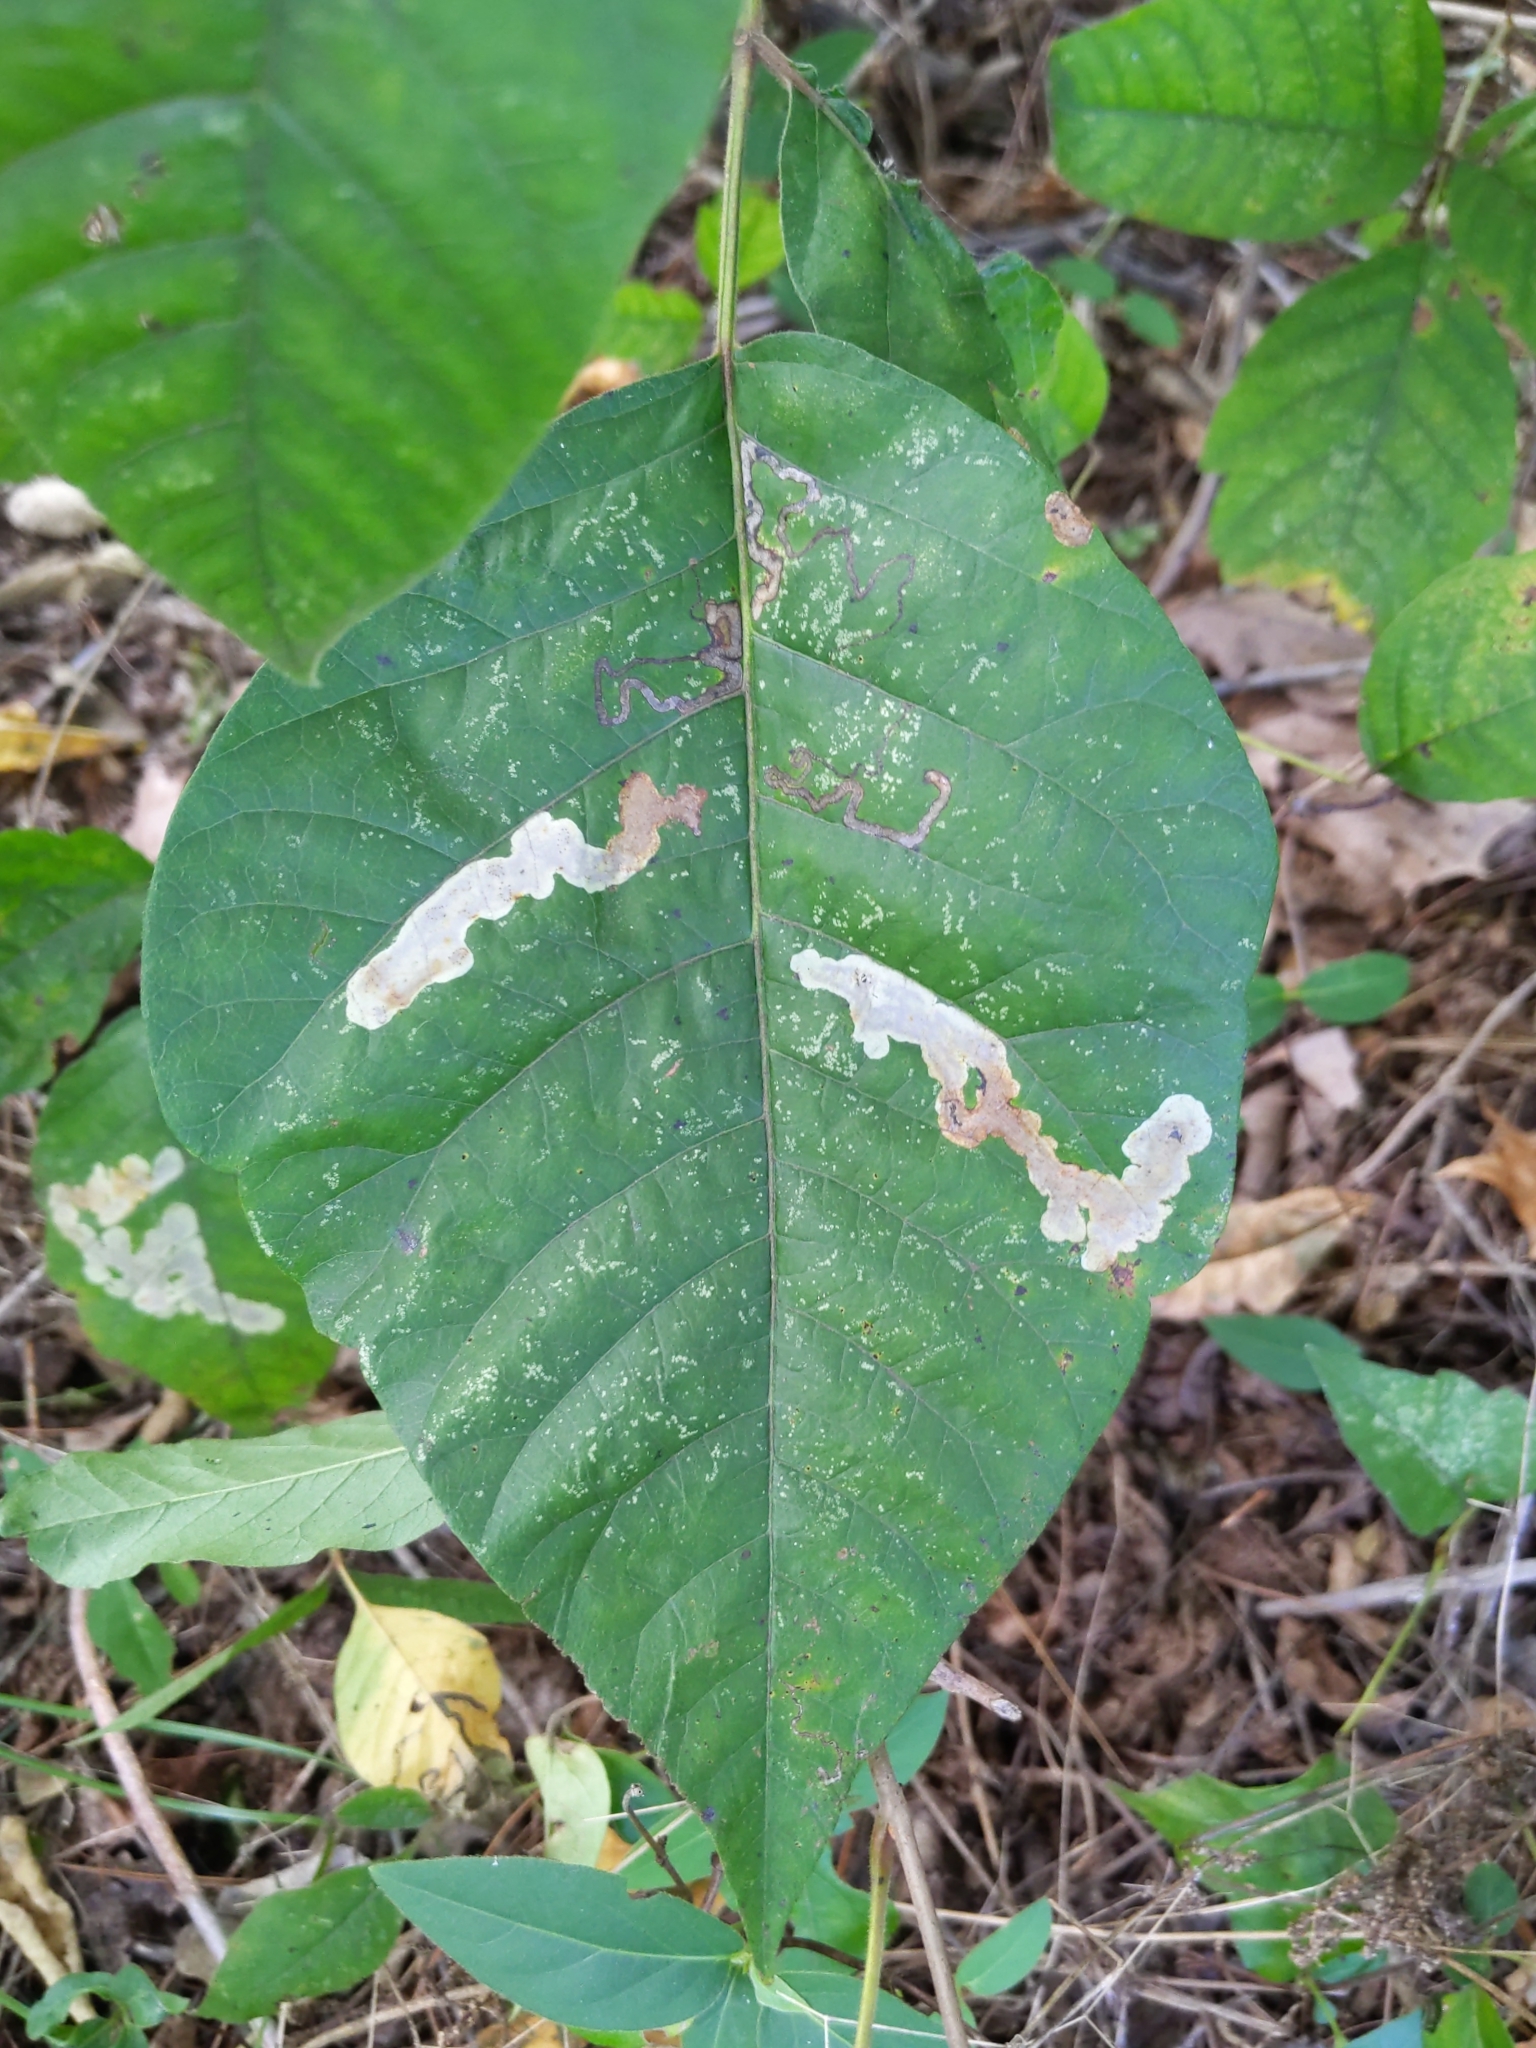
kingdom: Animalia
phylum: Arthropoda
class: Insecta
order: Lepidoptera
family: Nepticulidae
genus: Stigmella
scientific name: Stigmella rhoifoliella
